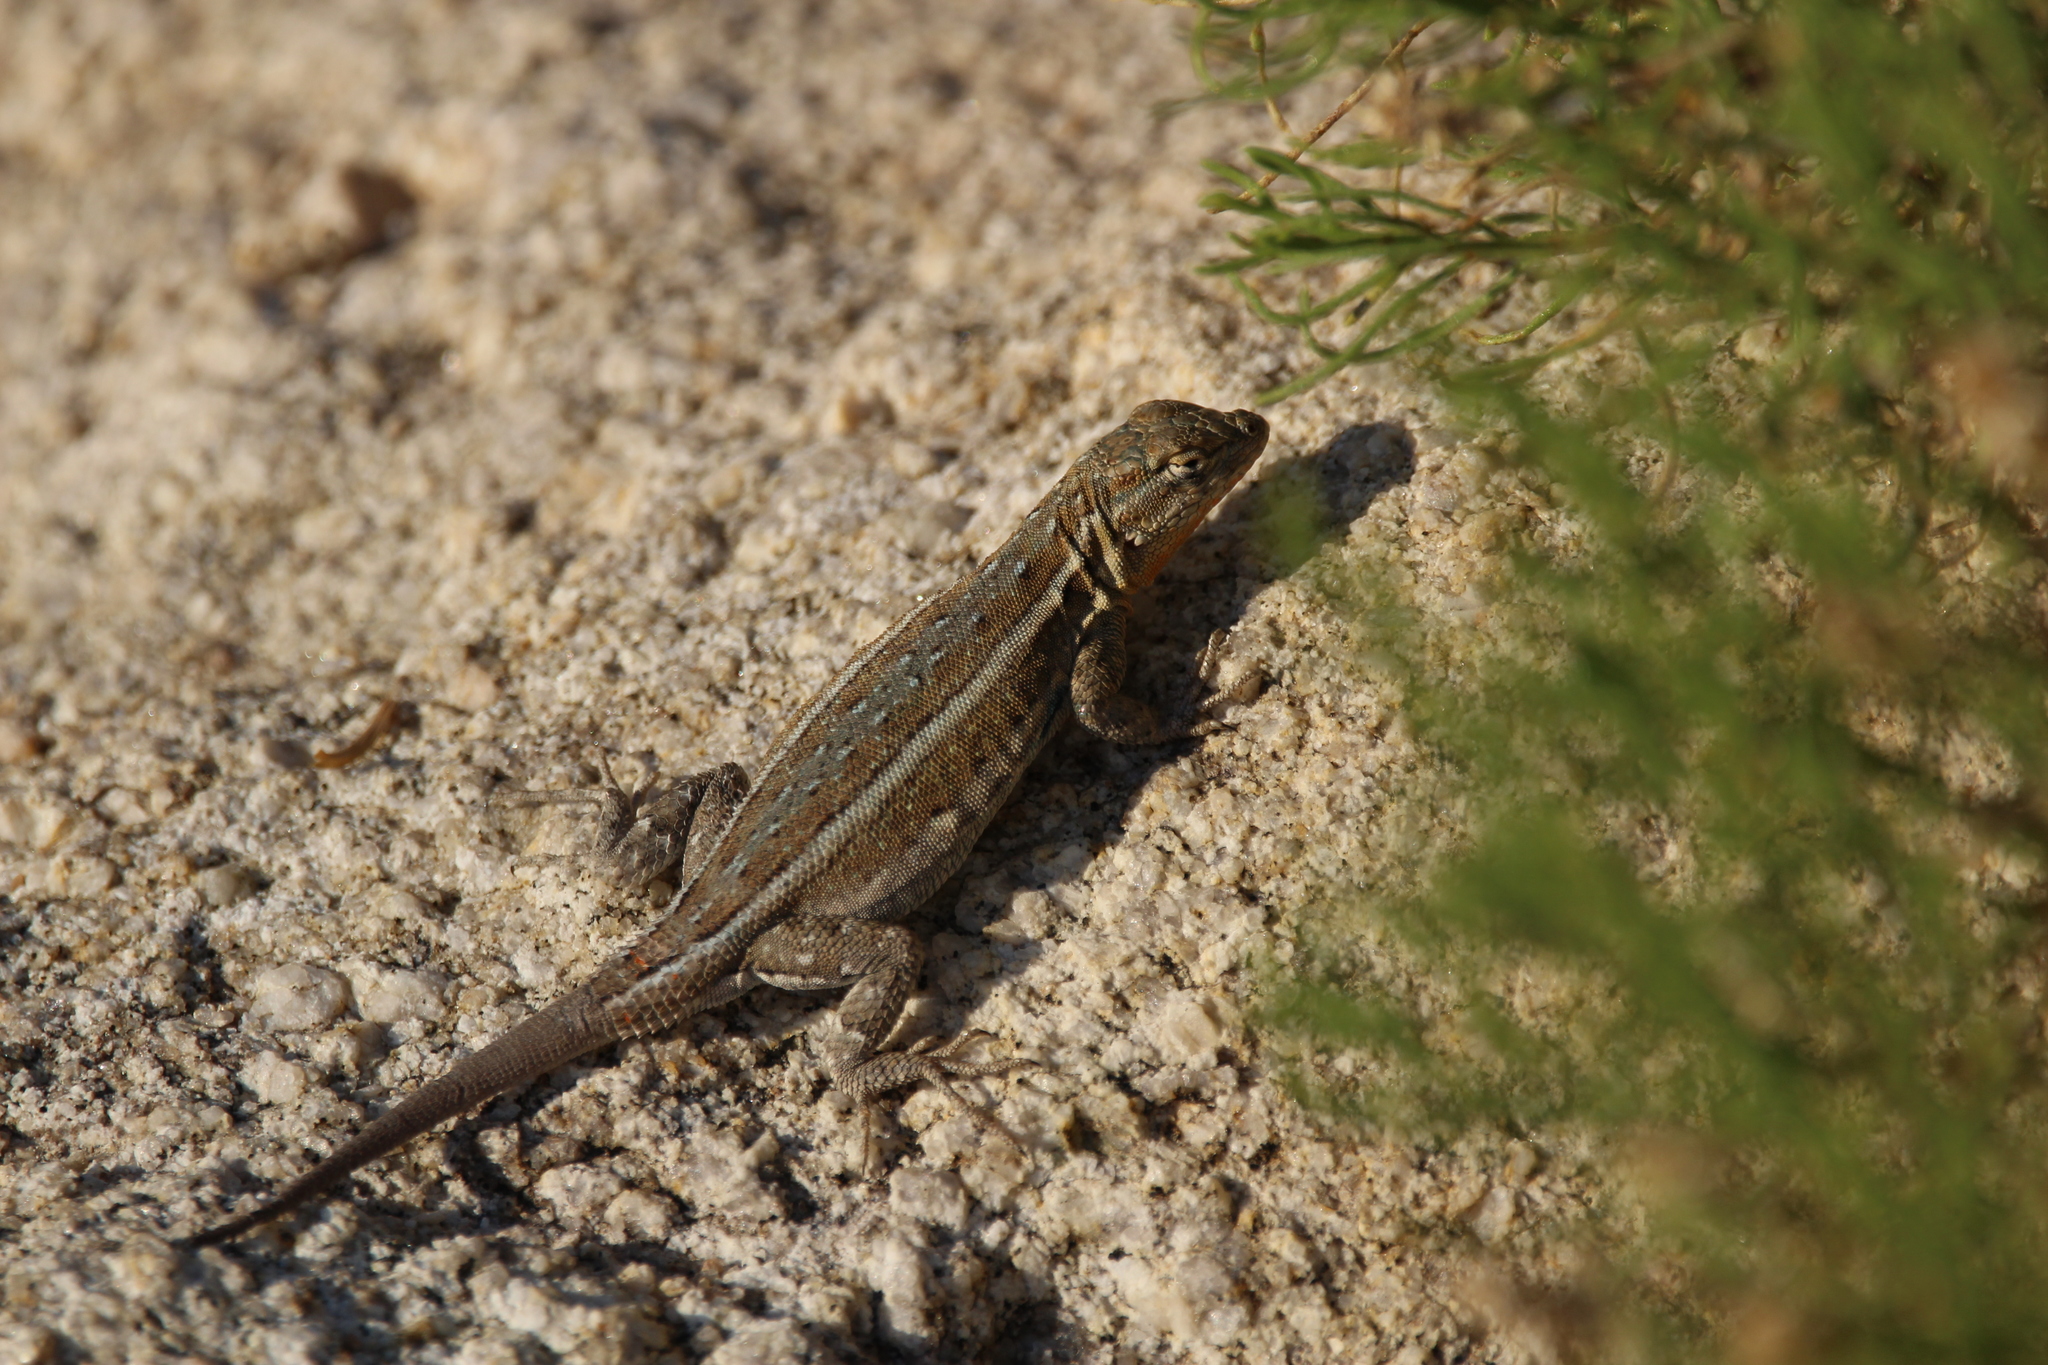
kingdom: Animalia
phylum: Chordata
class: Squamata
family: Phrynosomatidae
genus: Uta
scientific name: Uta stansburiana
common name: Side-blotched lizard
